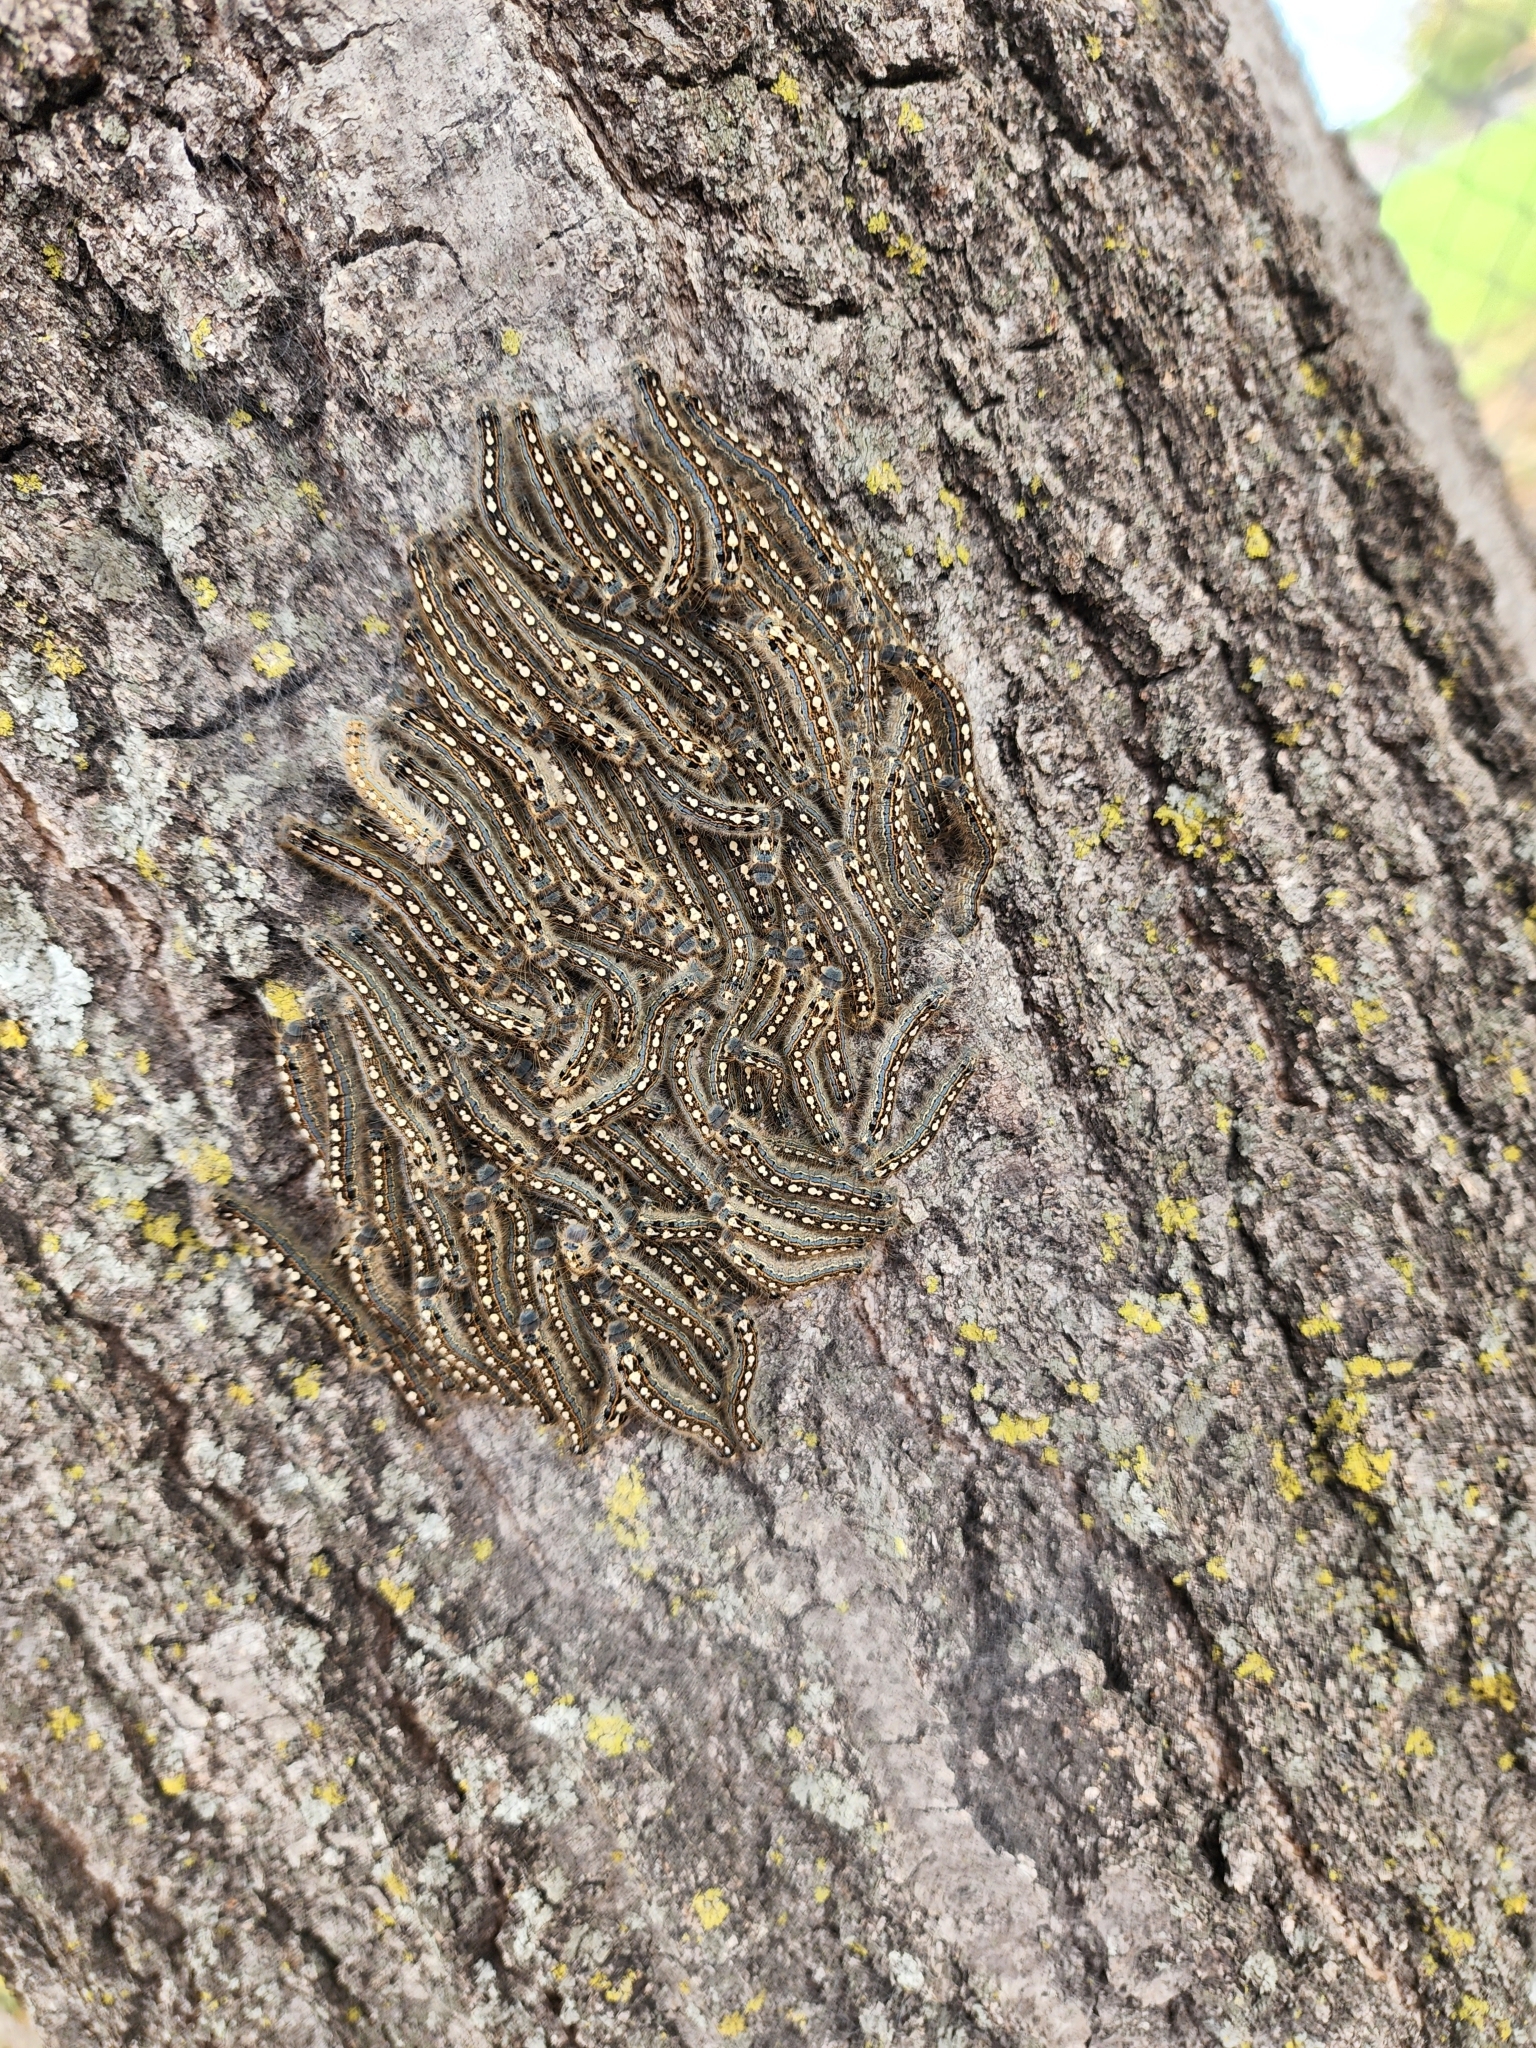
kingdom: Animalia
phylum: Arthropoda
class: Insecta
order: Lepidoptera
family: Lasiocampidae
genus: Malacosoma
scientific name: Malacosoma disstria
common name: Forest tent caterpillar
